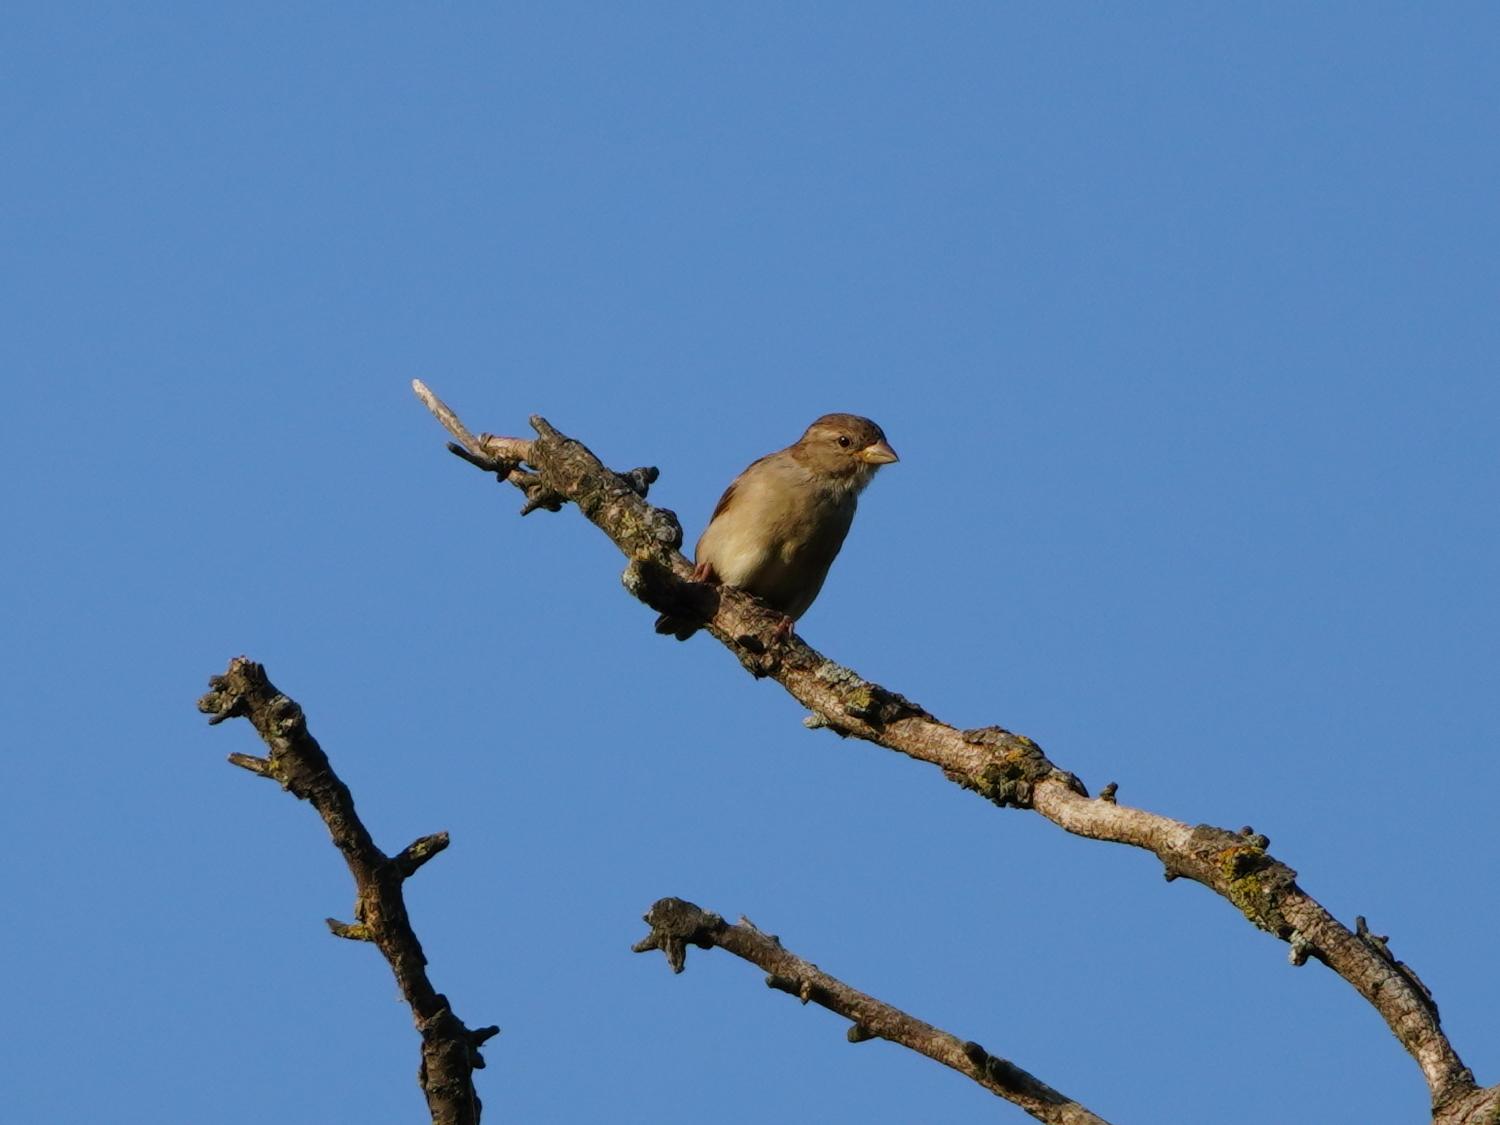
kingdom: Animalia
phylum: Chordata
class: Aves
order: Passeriformes
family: Passeridae
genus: Passer
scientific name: Passer domesticus
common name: House sparrow
